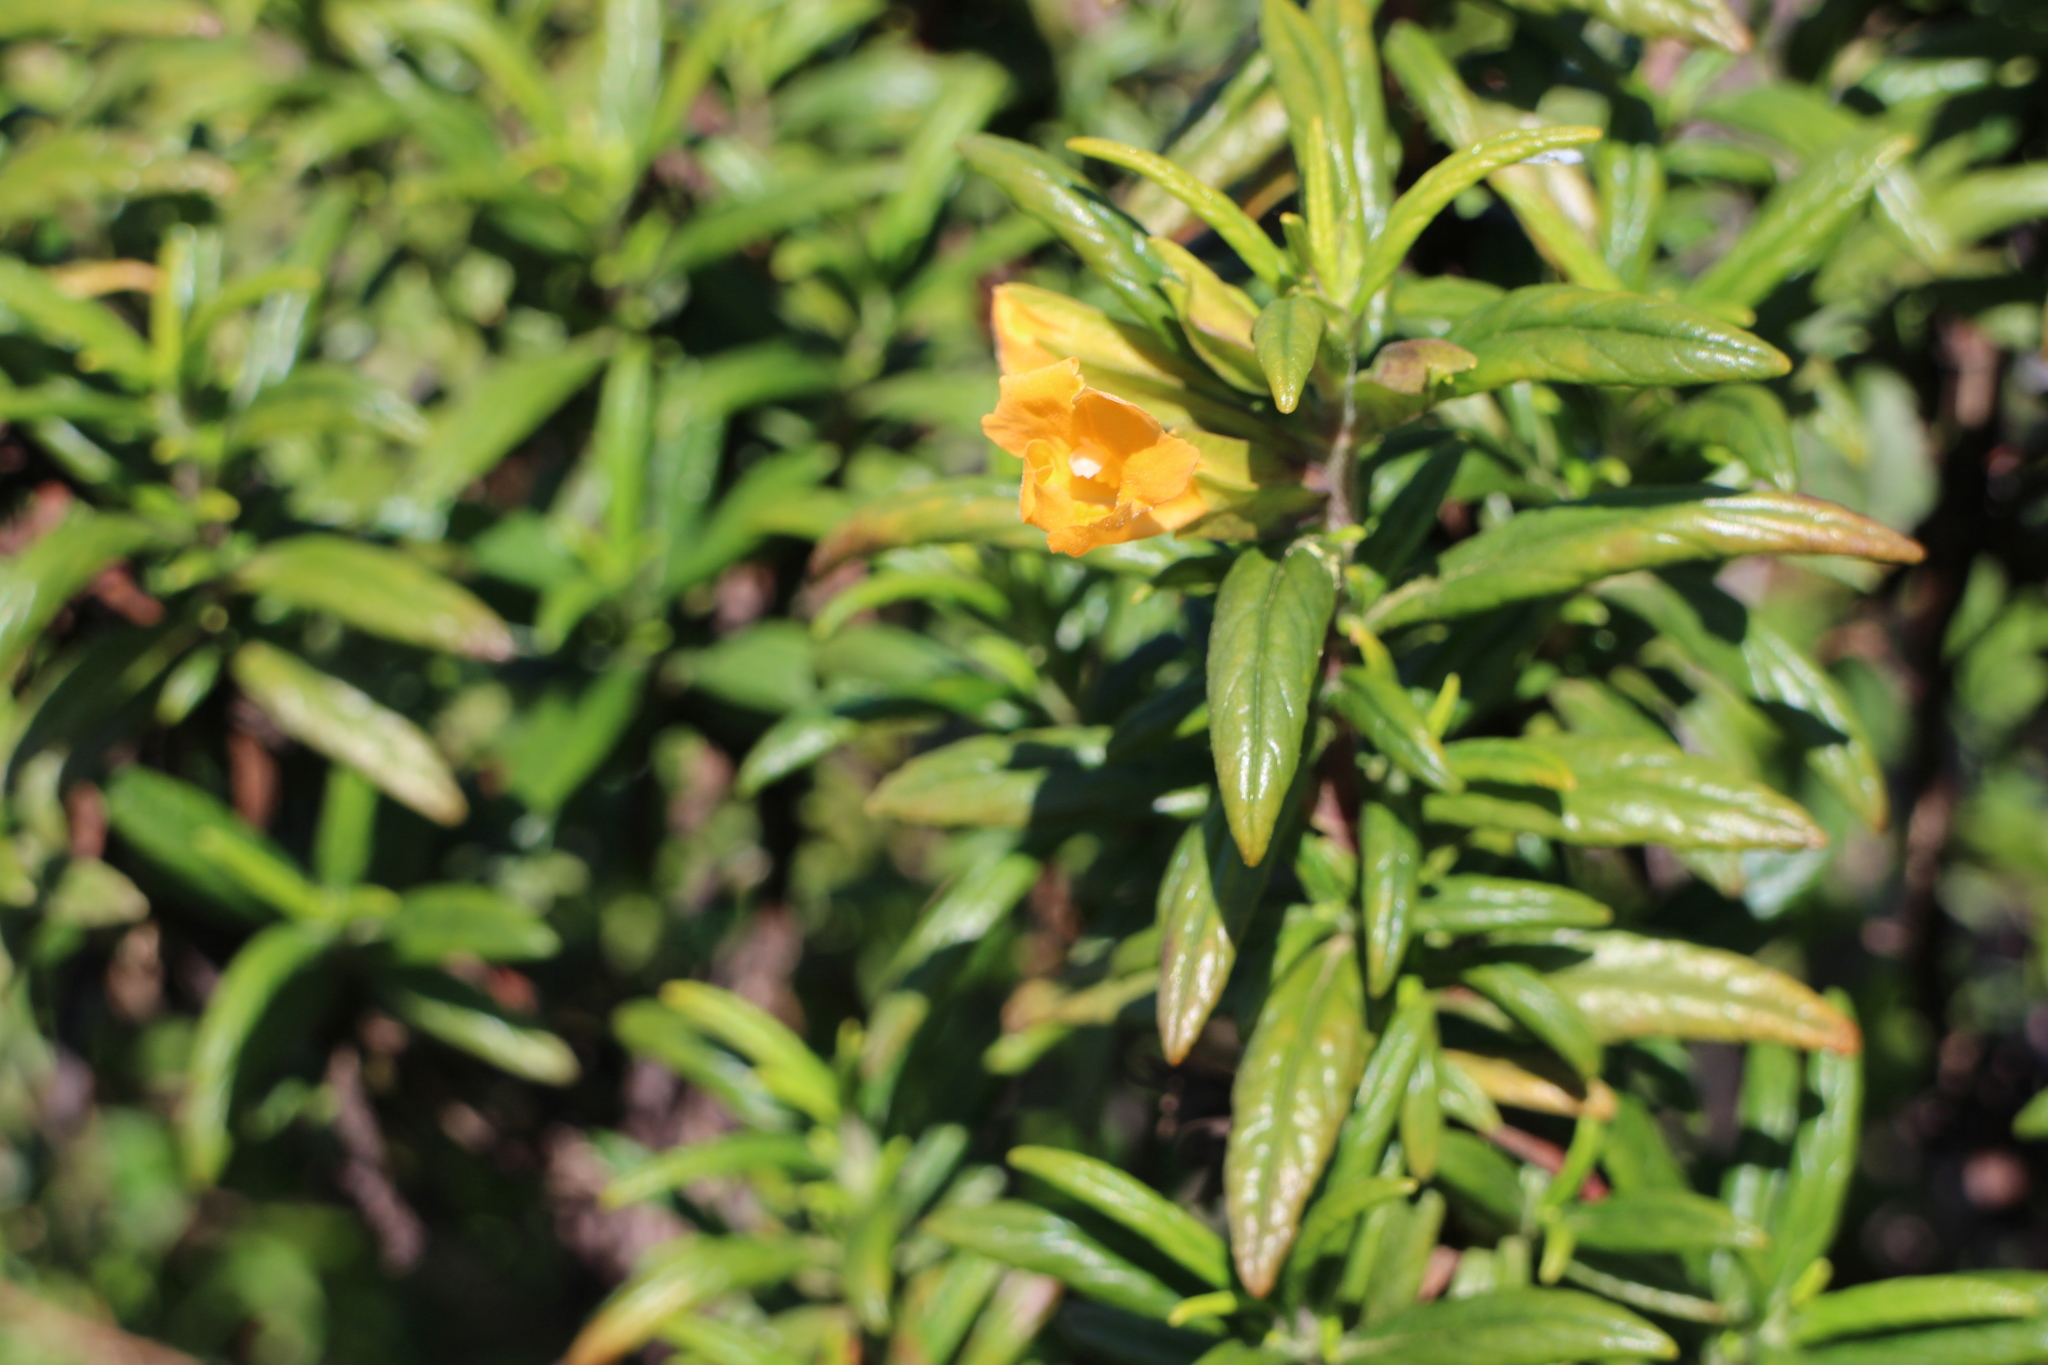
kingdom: Plantae
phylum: Tracheophyta
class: Magnoliopsida
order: Lamiales
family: Phrymaceae
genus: Diplacus
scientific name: Diplacus aurantiacus
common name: Bush monkey-flower
